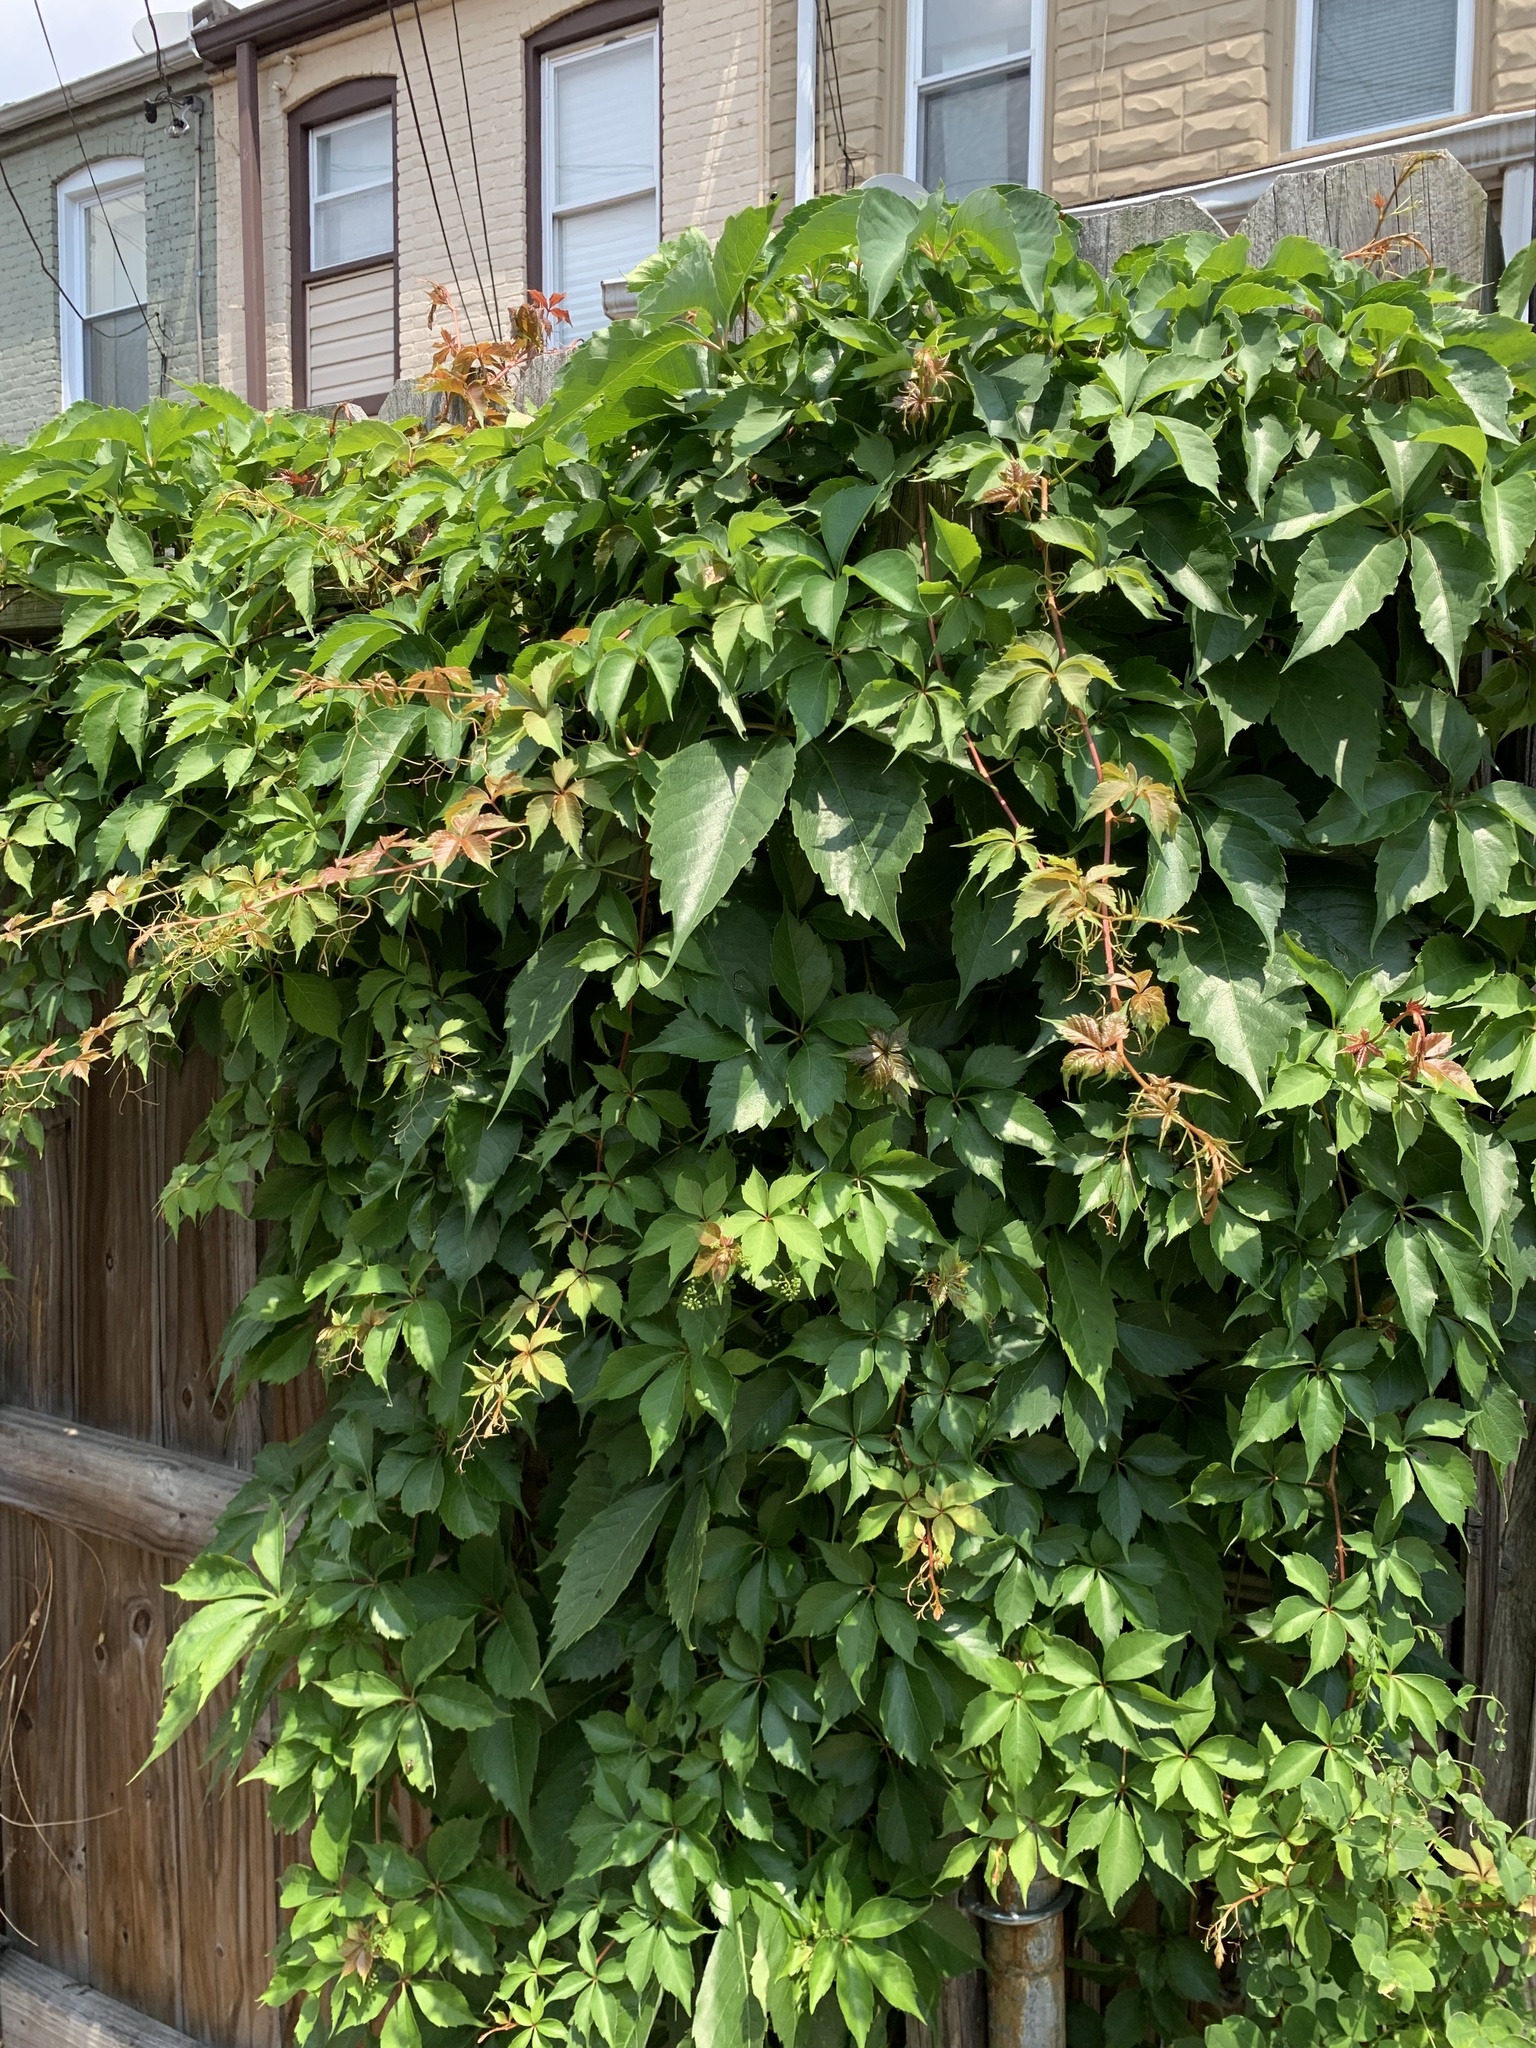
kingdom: Plantae
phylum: Tracheophyta
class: Magnoliopsida
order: Vitales
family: Vitaceae
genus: Parthenocissus
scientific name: Parthenocissus quinquefolia
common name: Virginia-creeper
